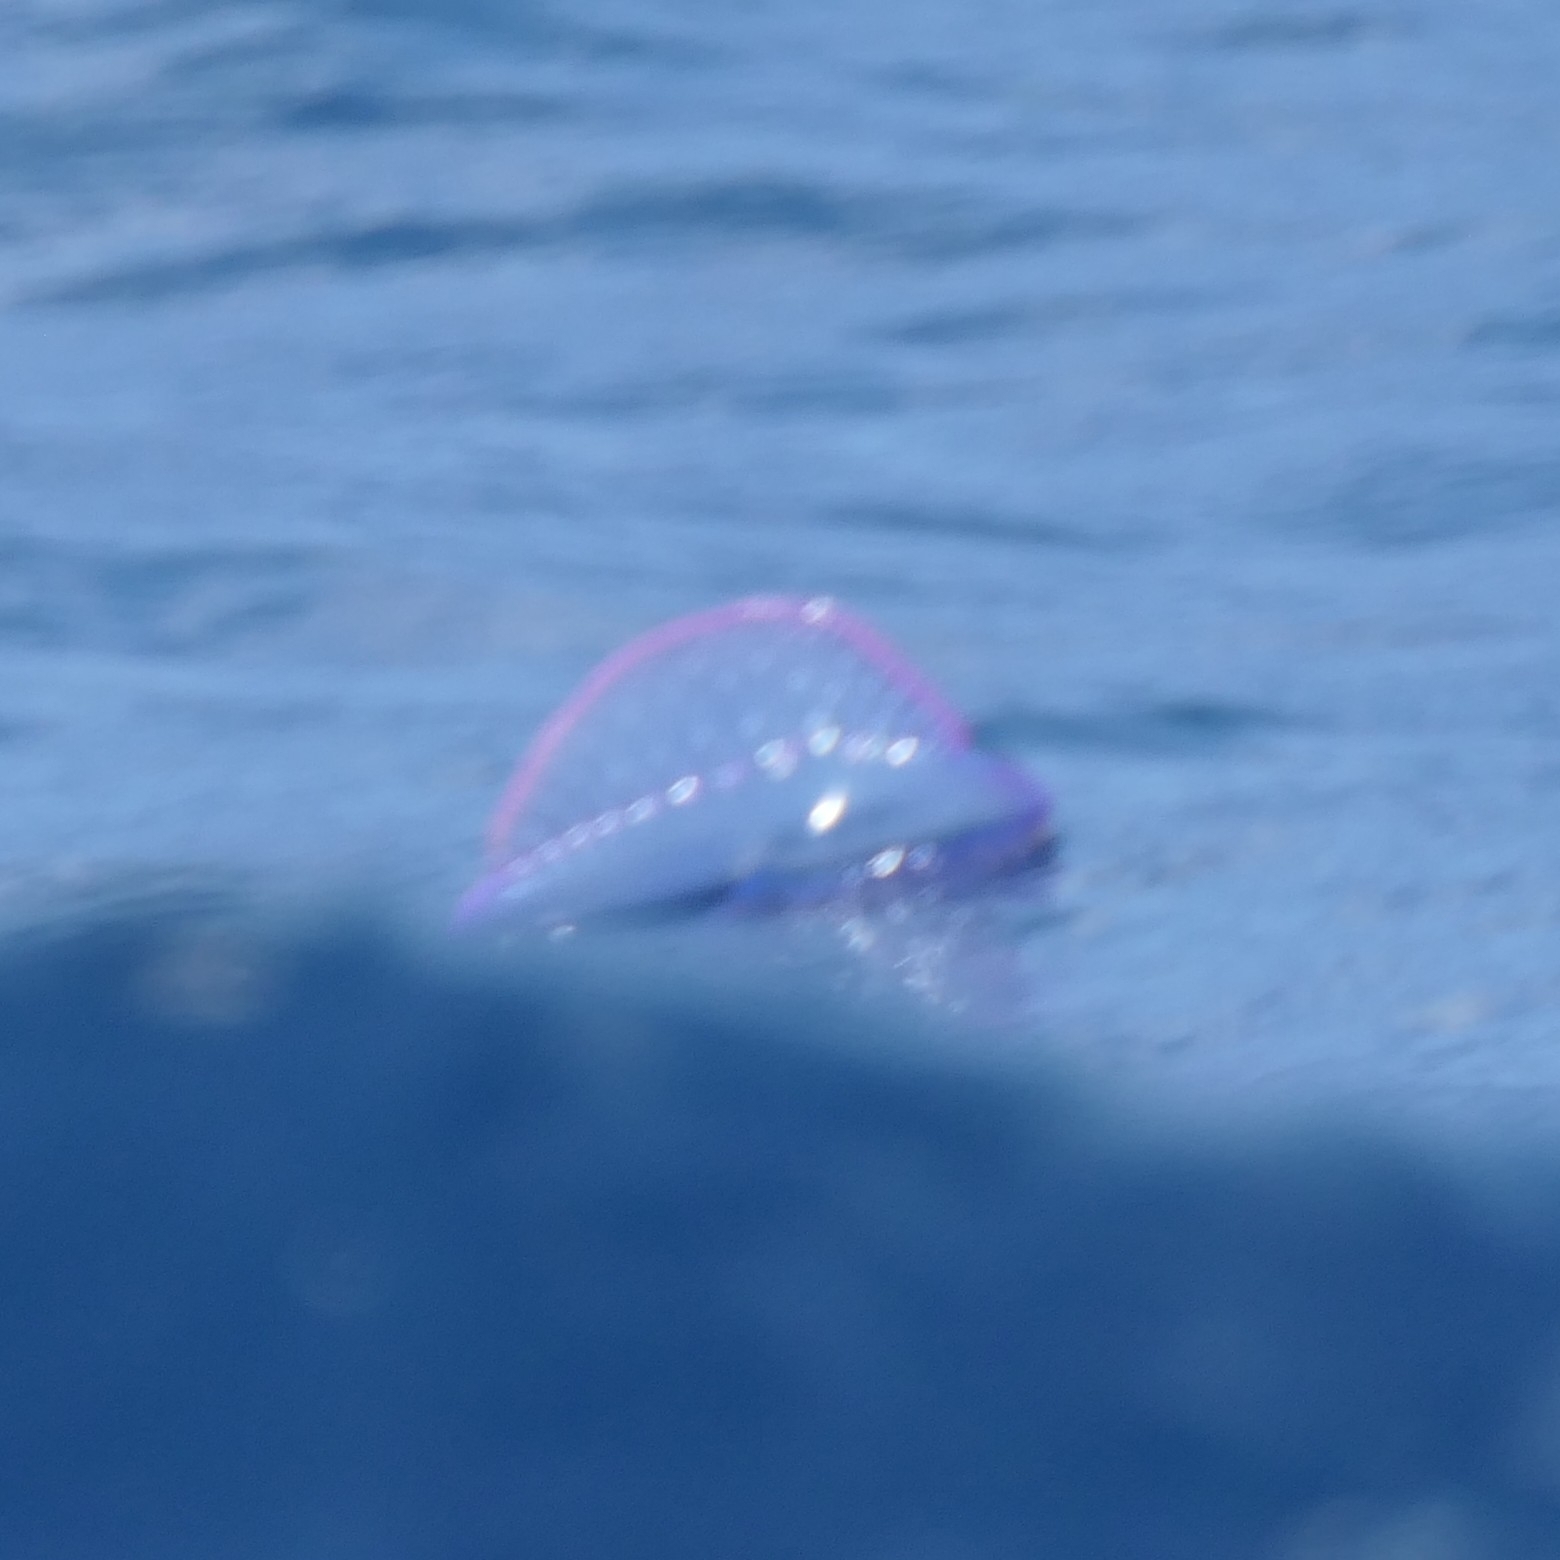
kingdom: Animalia
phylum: Cnidaria
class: Hydrozoa
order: Siphonophorae
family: Physaliidae
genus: Physalia
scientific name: Physalia physalis
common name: Portuguese man-of-war
